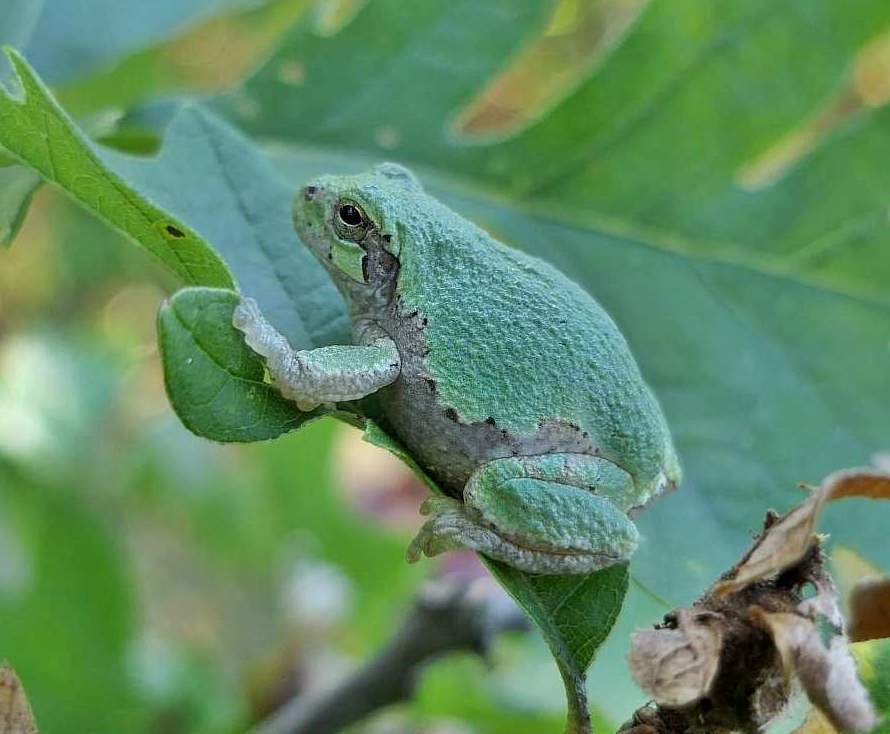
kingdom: Animalia
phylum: Chordata
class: Amphibia
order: Anura
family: Hylidae
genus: Dryophytes
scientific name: Dryophytes versicolor
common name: Gray treefrog
